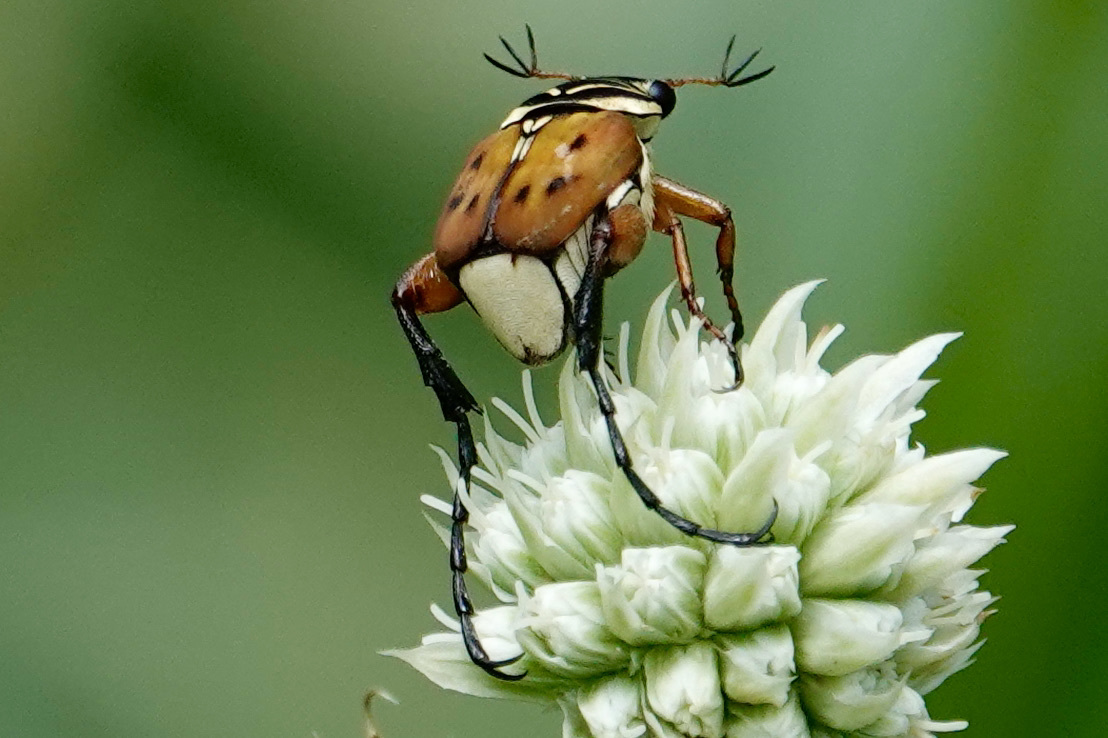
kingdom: Animalia
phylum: Arthropoda
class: Insecta
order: Coleoptera
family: Scarabaeidae
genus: Trigonopeltastes
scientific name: Trigonopeltastes delta
